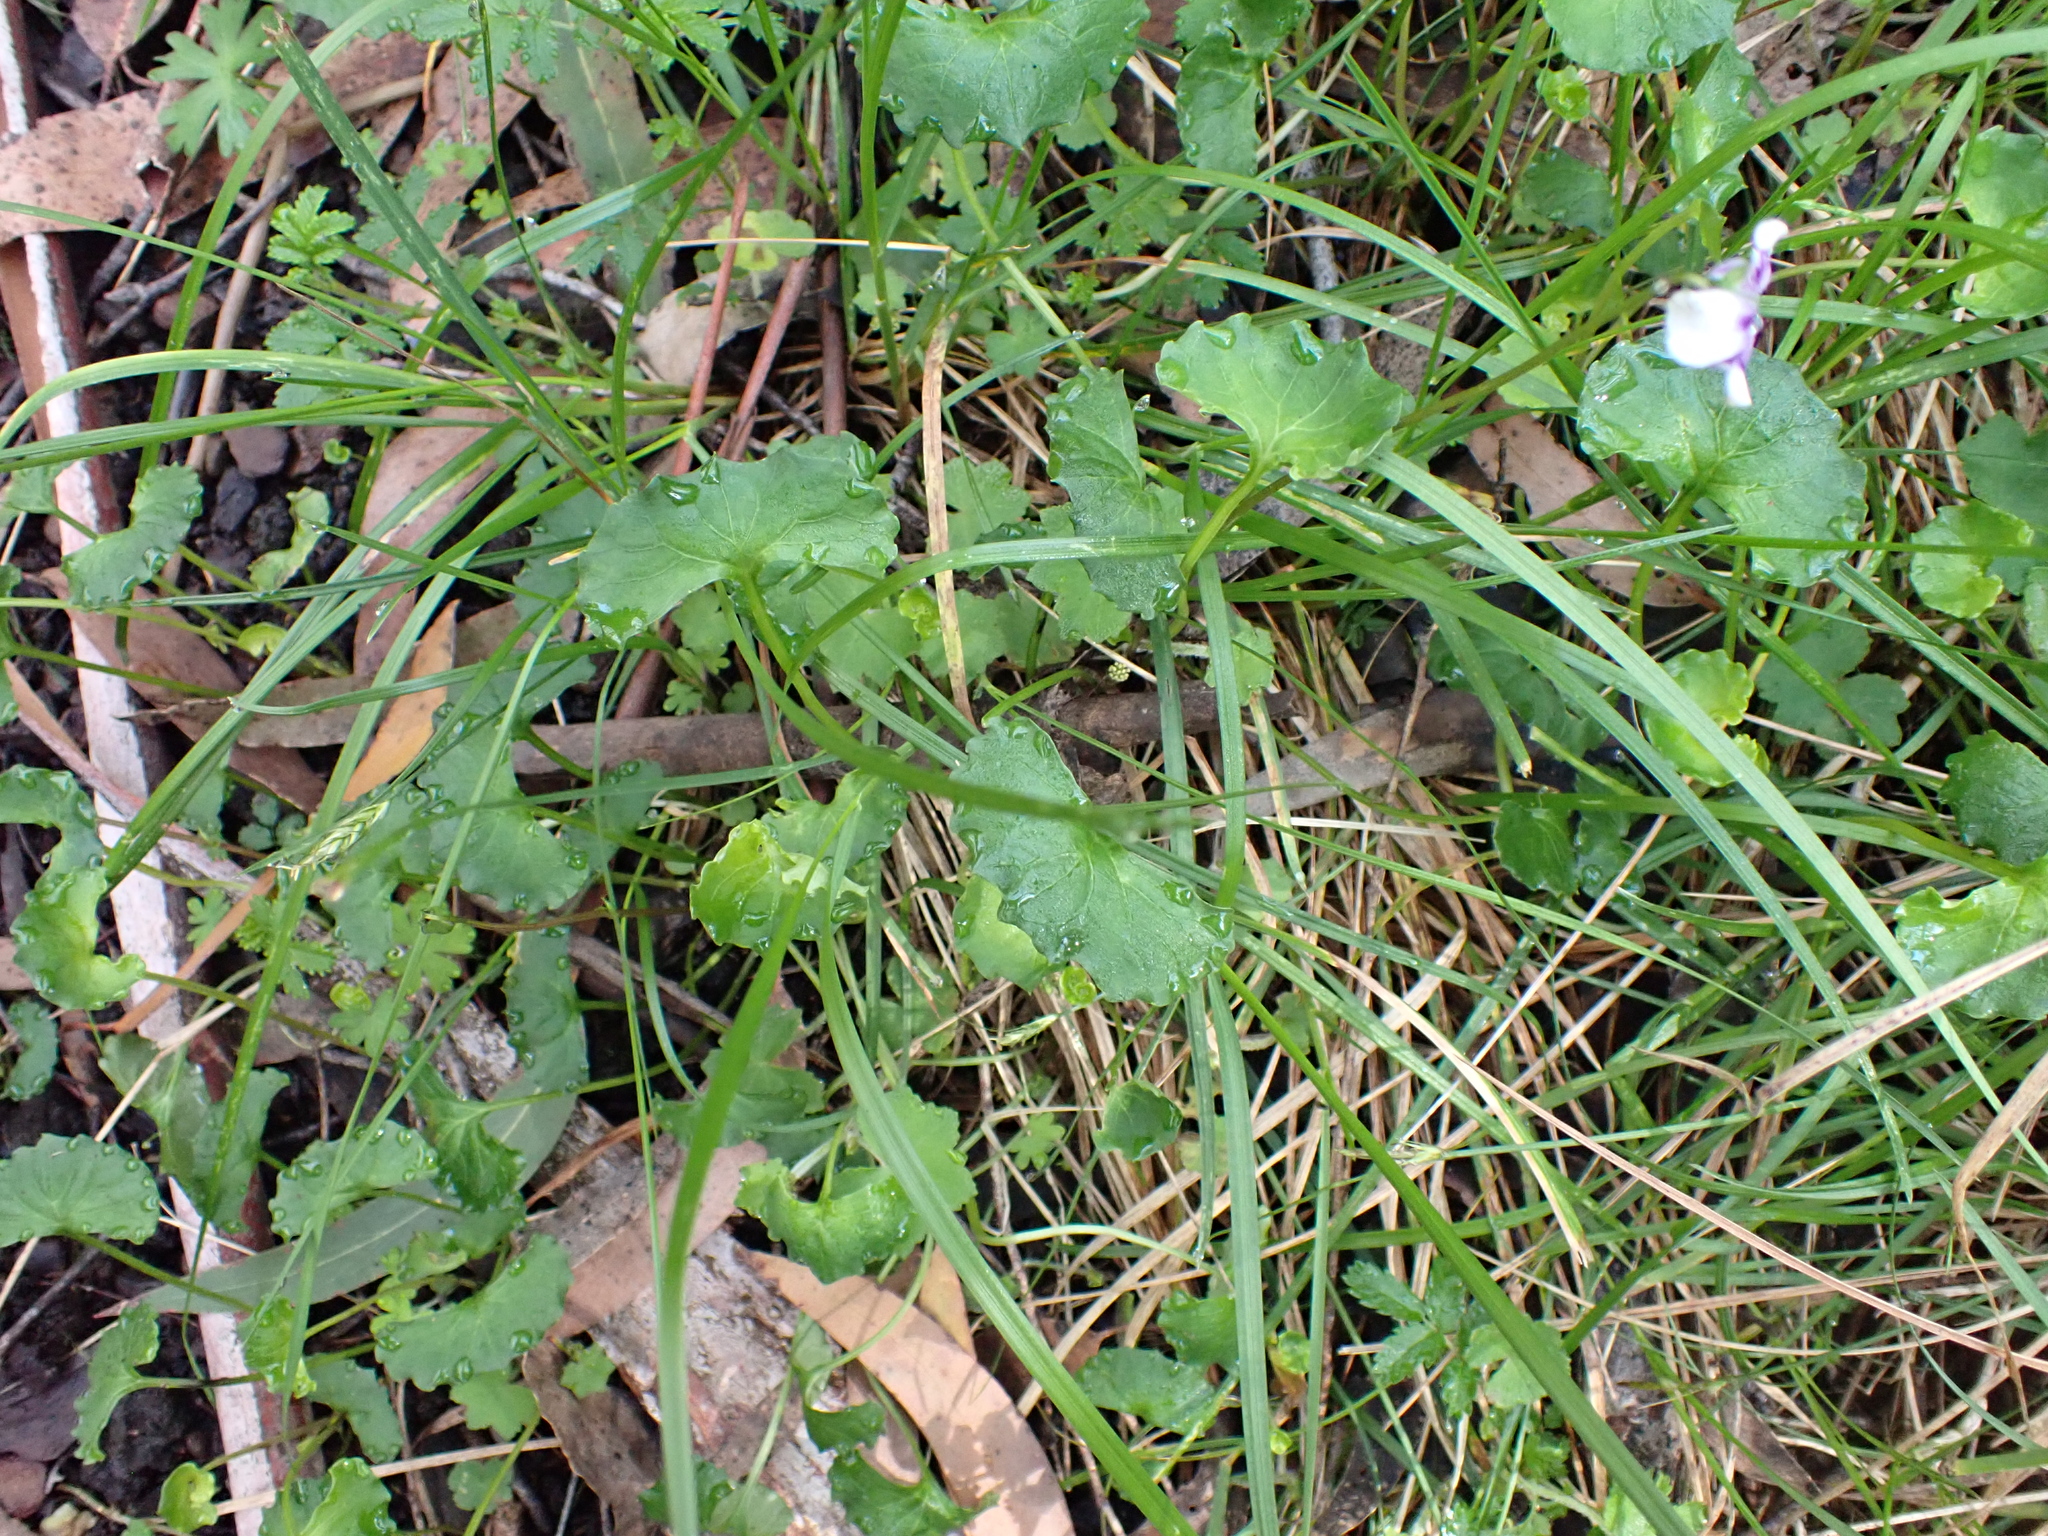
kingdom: Plantae
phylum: Tracheophyta
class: Magnoliopsida
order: Malpighiales
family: Violaceae
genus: Viola
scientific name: Viola eminens
